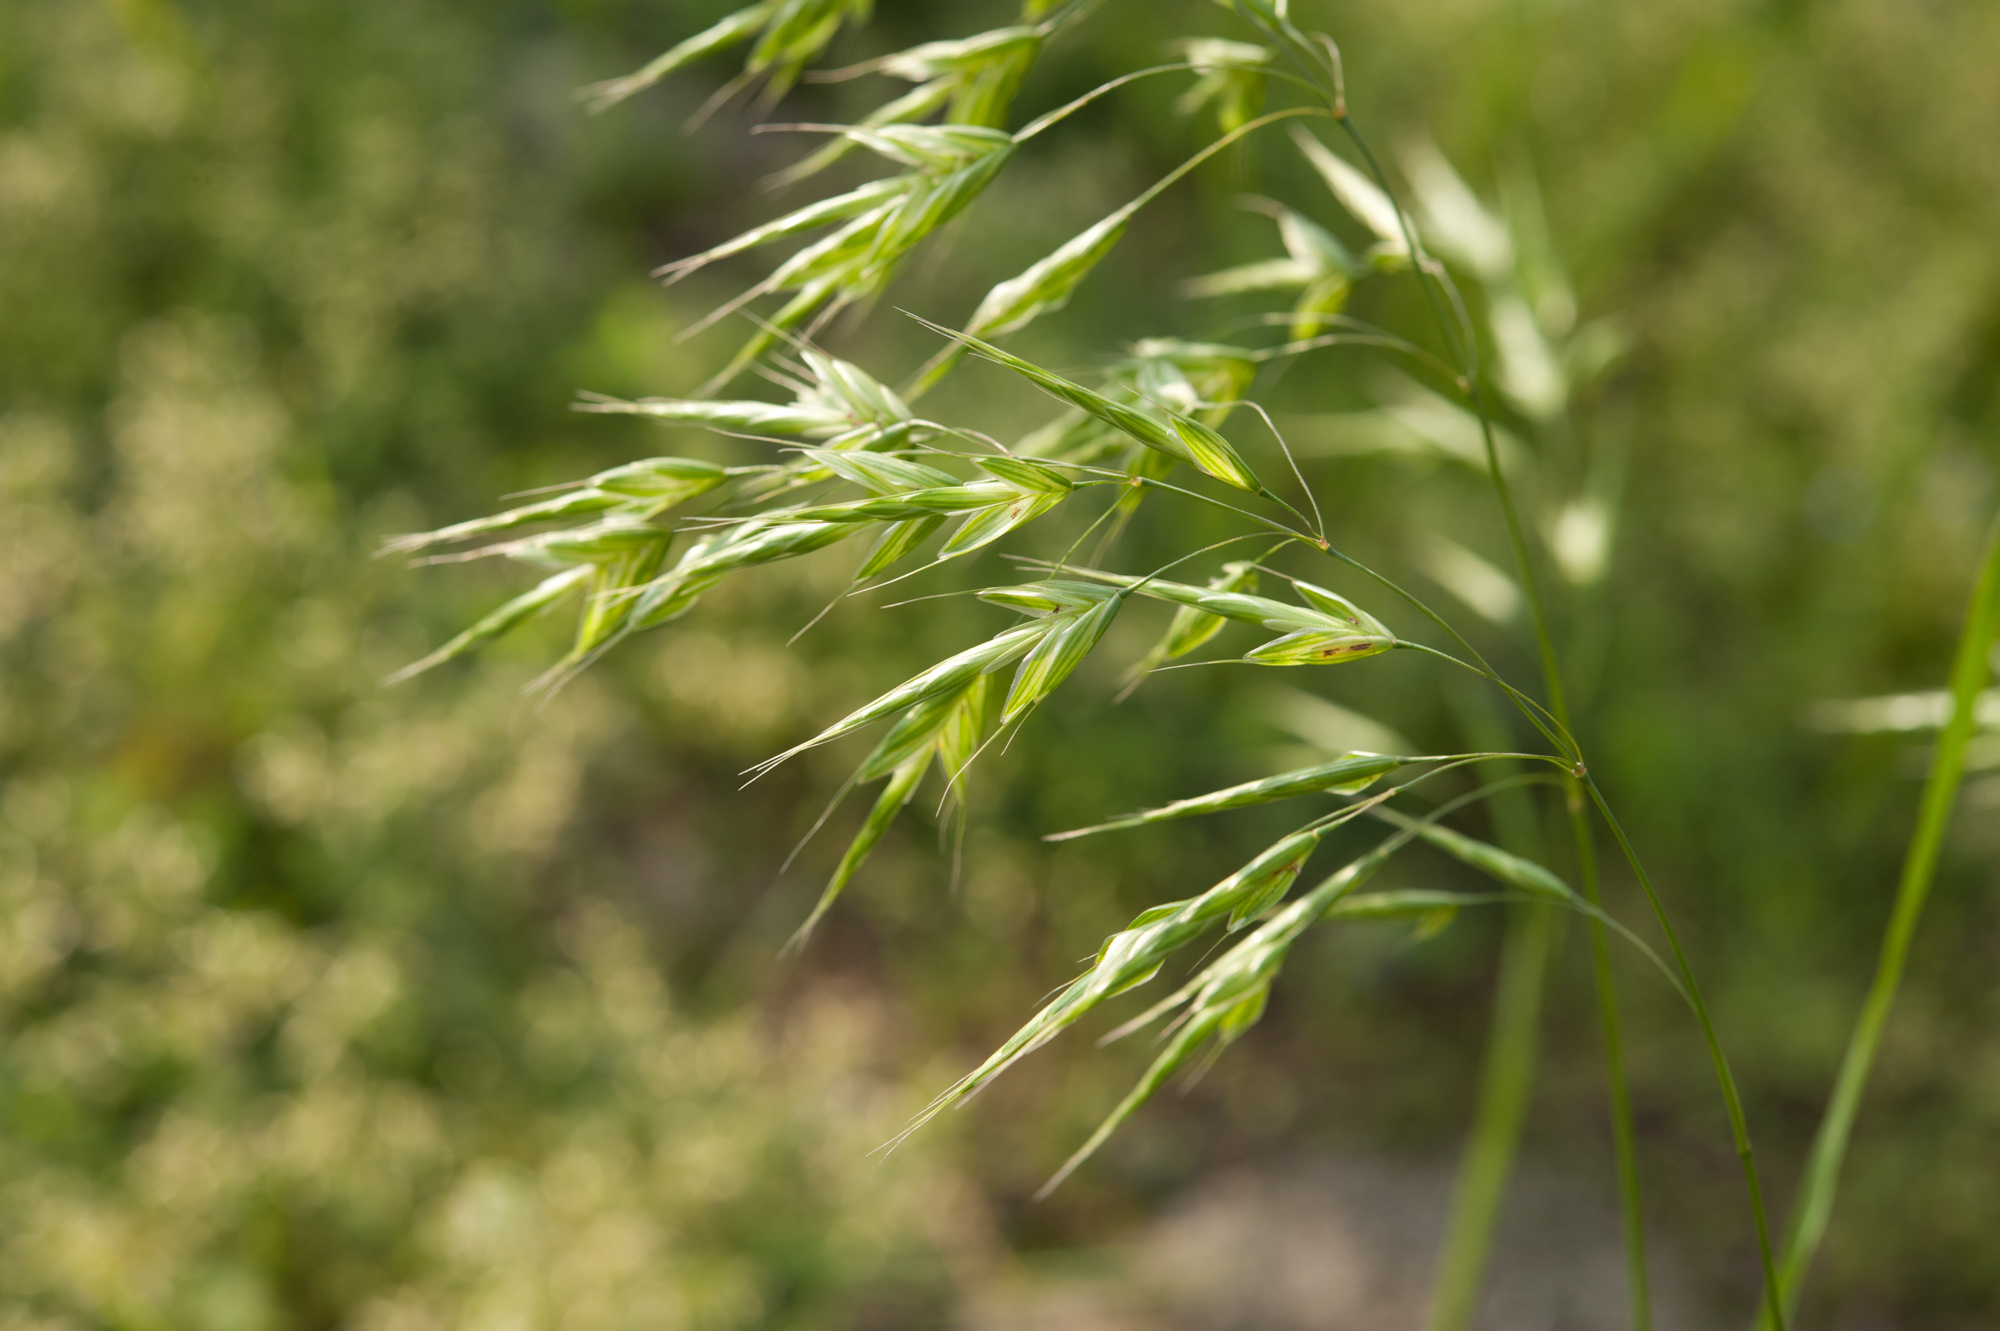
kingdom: Plantae
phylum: Tracheophyta
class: Liliopsida
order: Poales
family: Poaceae
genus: Bromus
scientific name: Bromus commutatus
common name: Meadow brome
